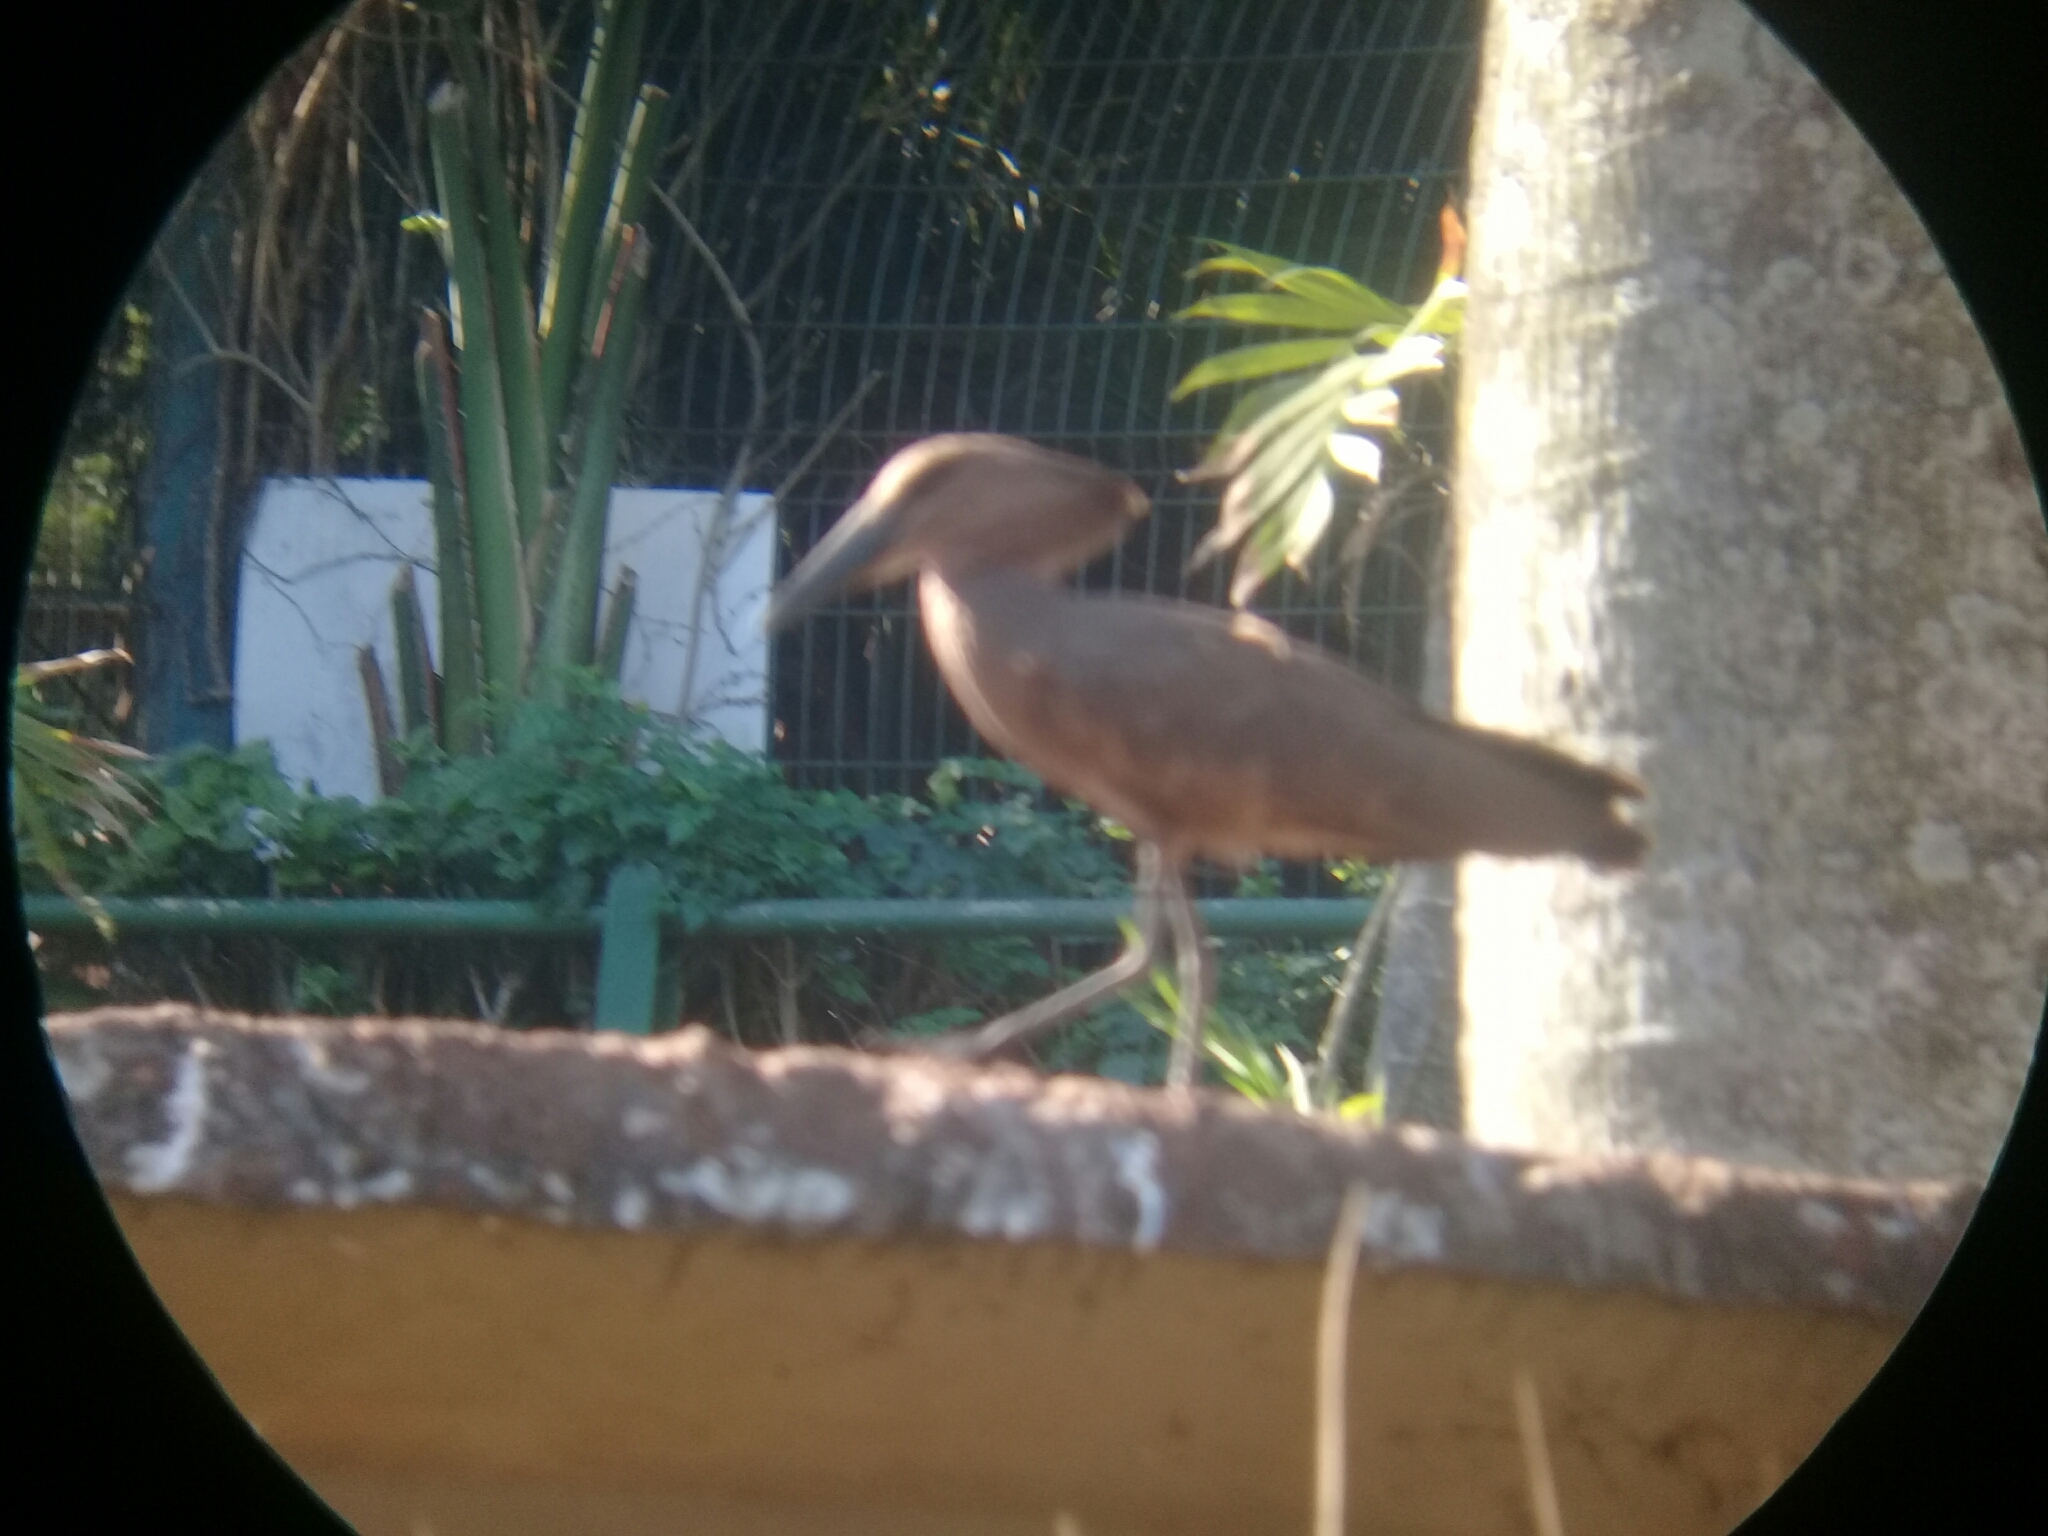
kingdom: Animalia
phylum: Chordata
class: Aves
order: Pelecaniformes
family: Scopidae
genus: Scopus
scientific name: Scopus umbretta
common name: Hamerkop
